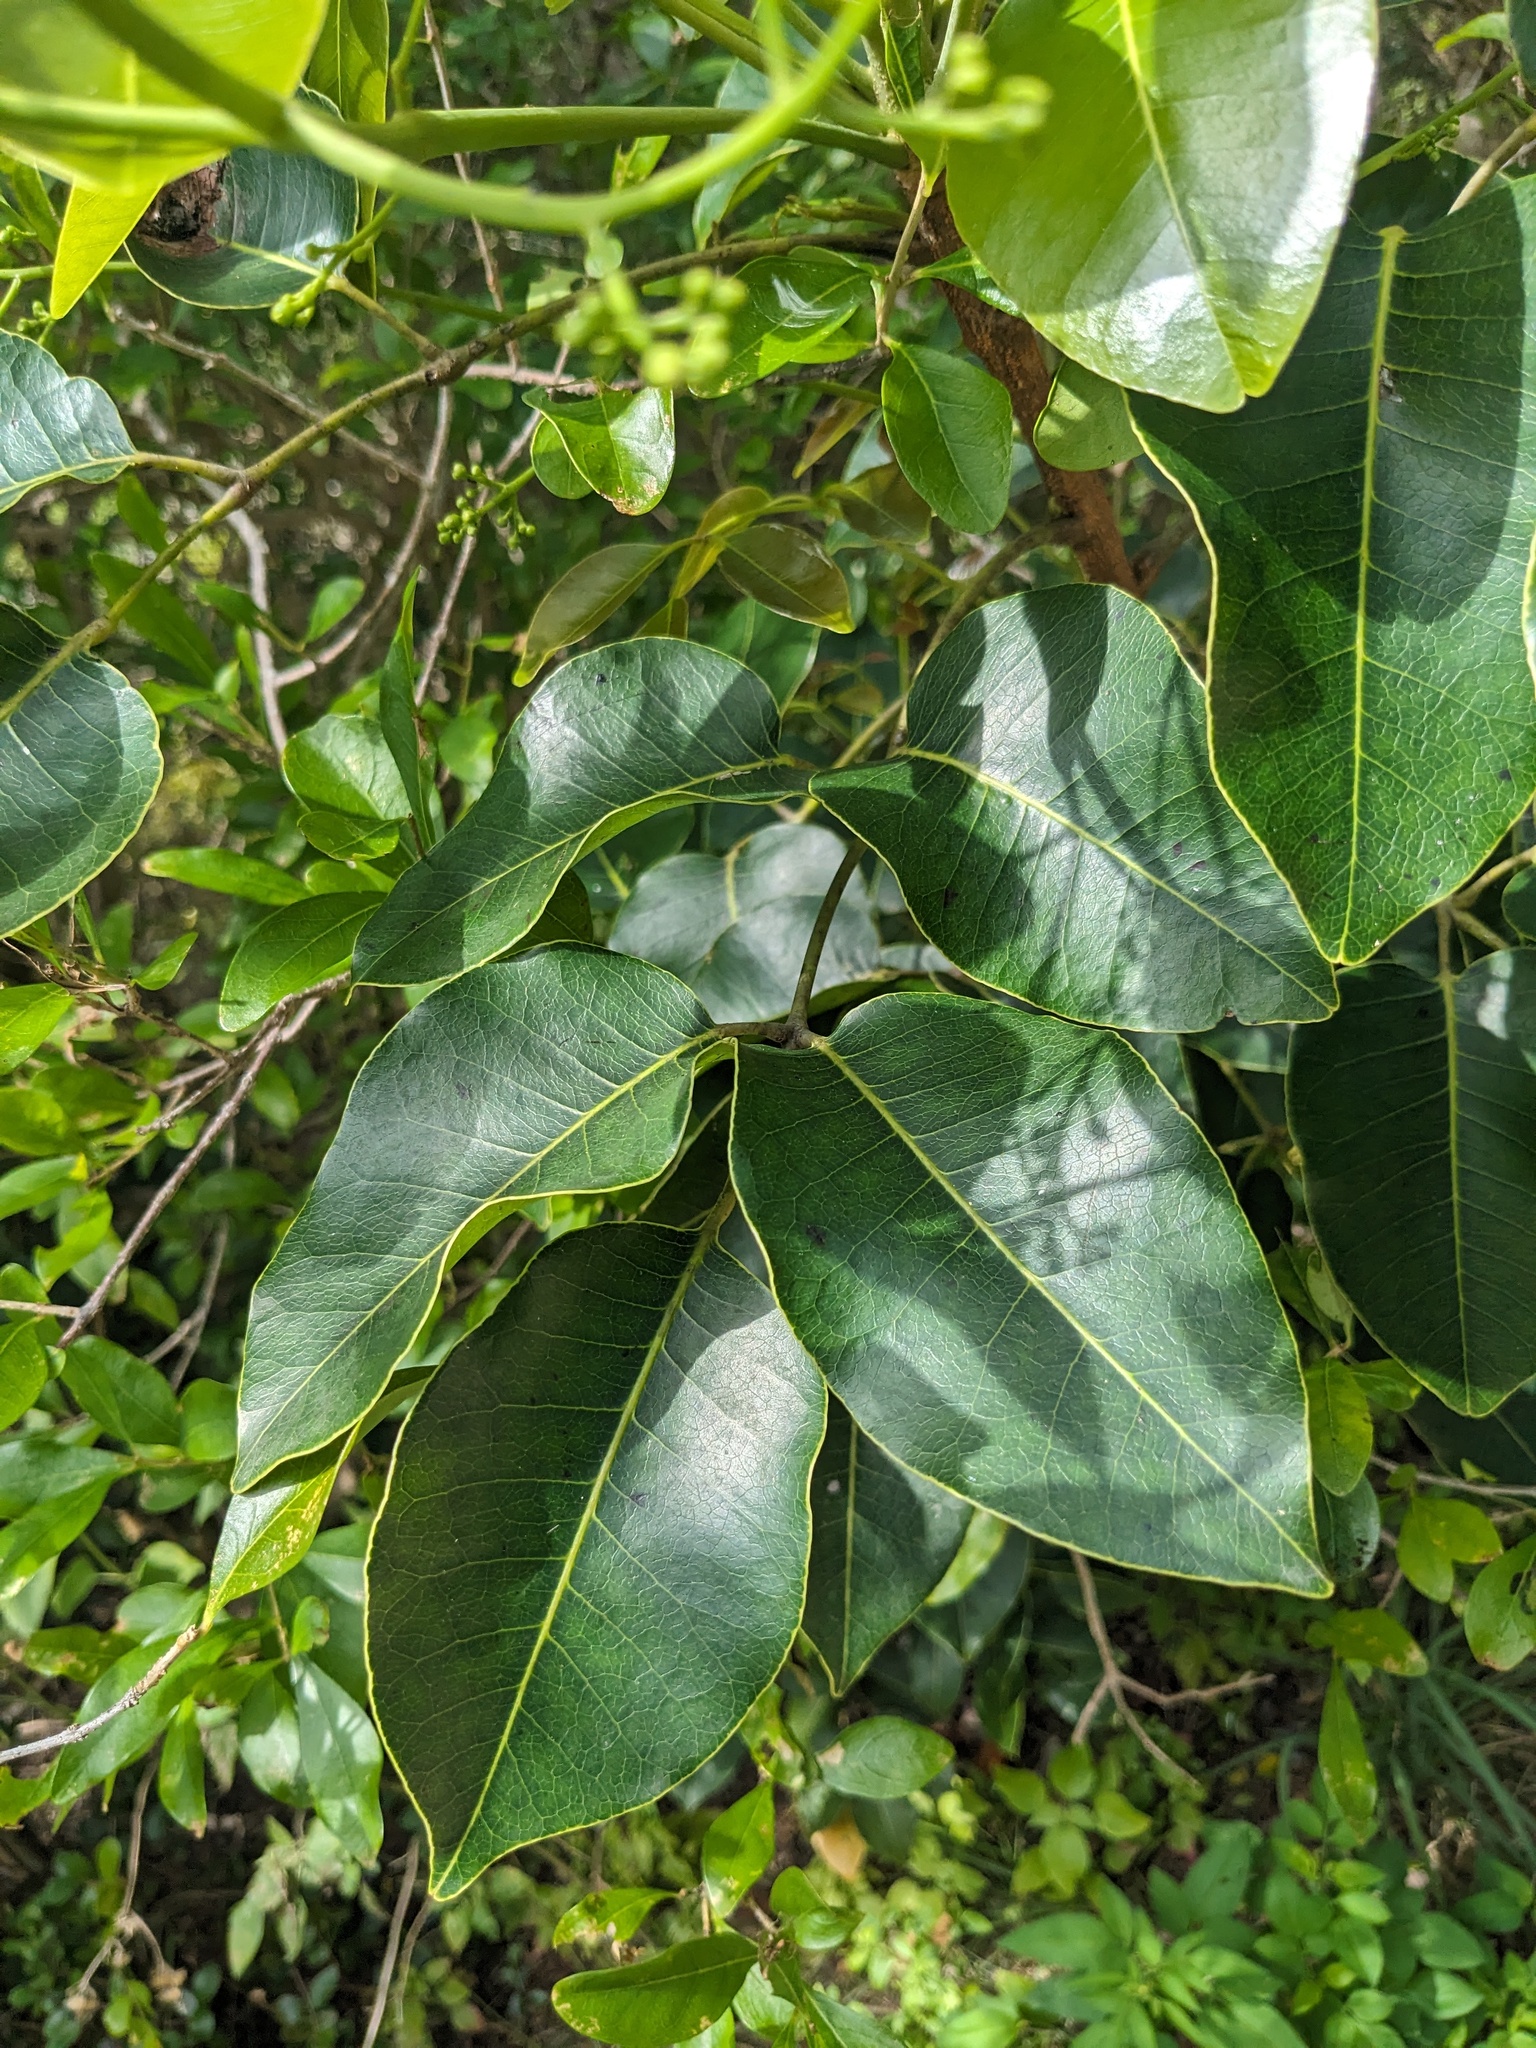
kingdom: Plantae
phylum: Tracheophyta
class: Magnoliopsida
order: Sapindales
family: Anacardiaceae
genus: Metopium
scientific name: Metopium toxiferum
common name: Florida poisontree
